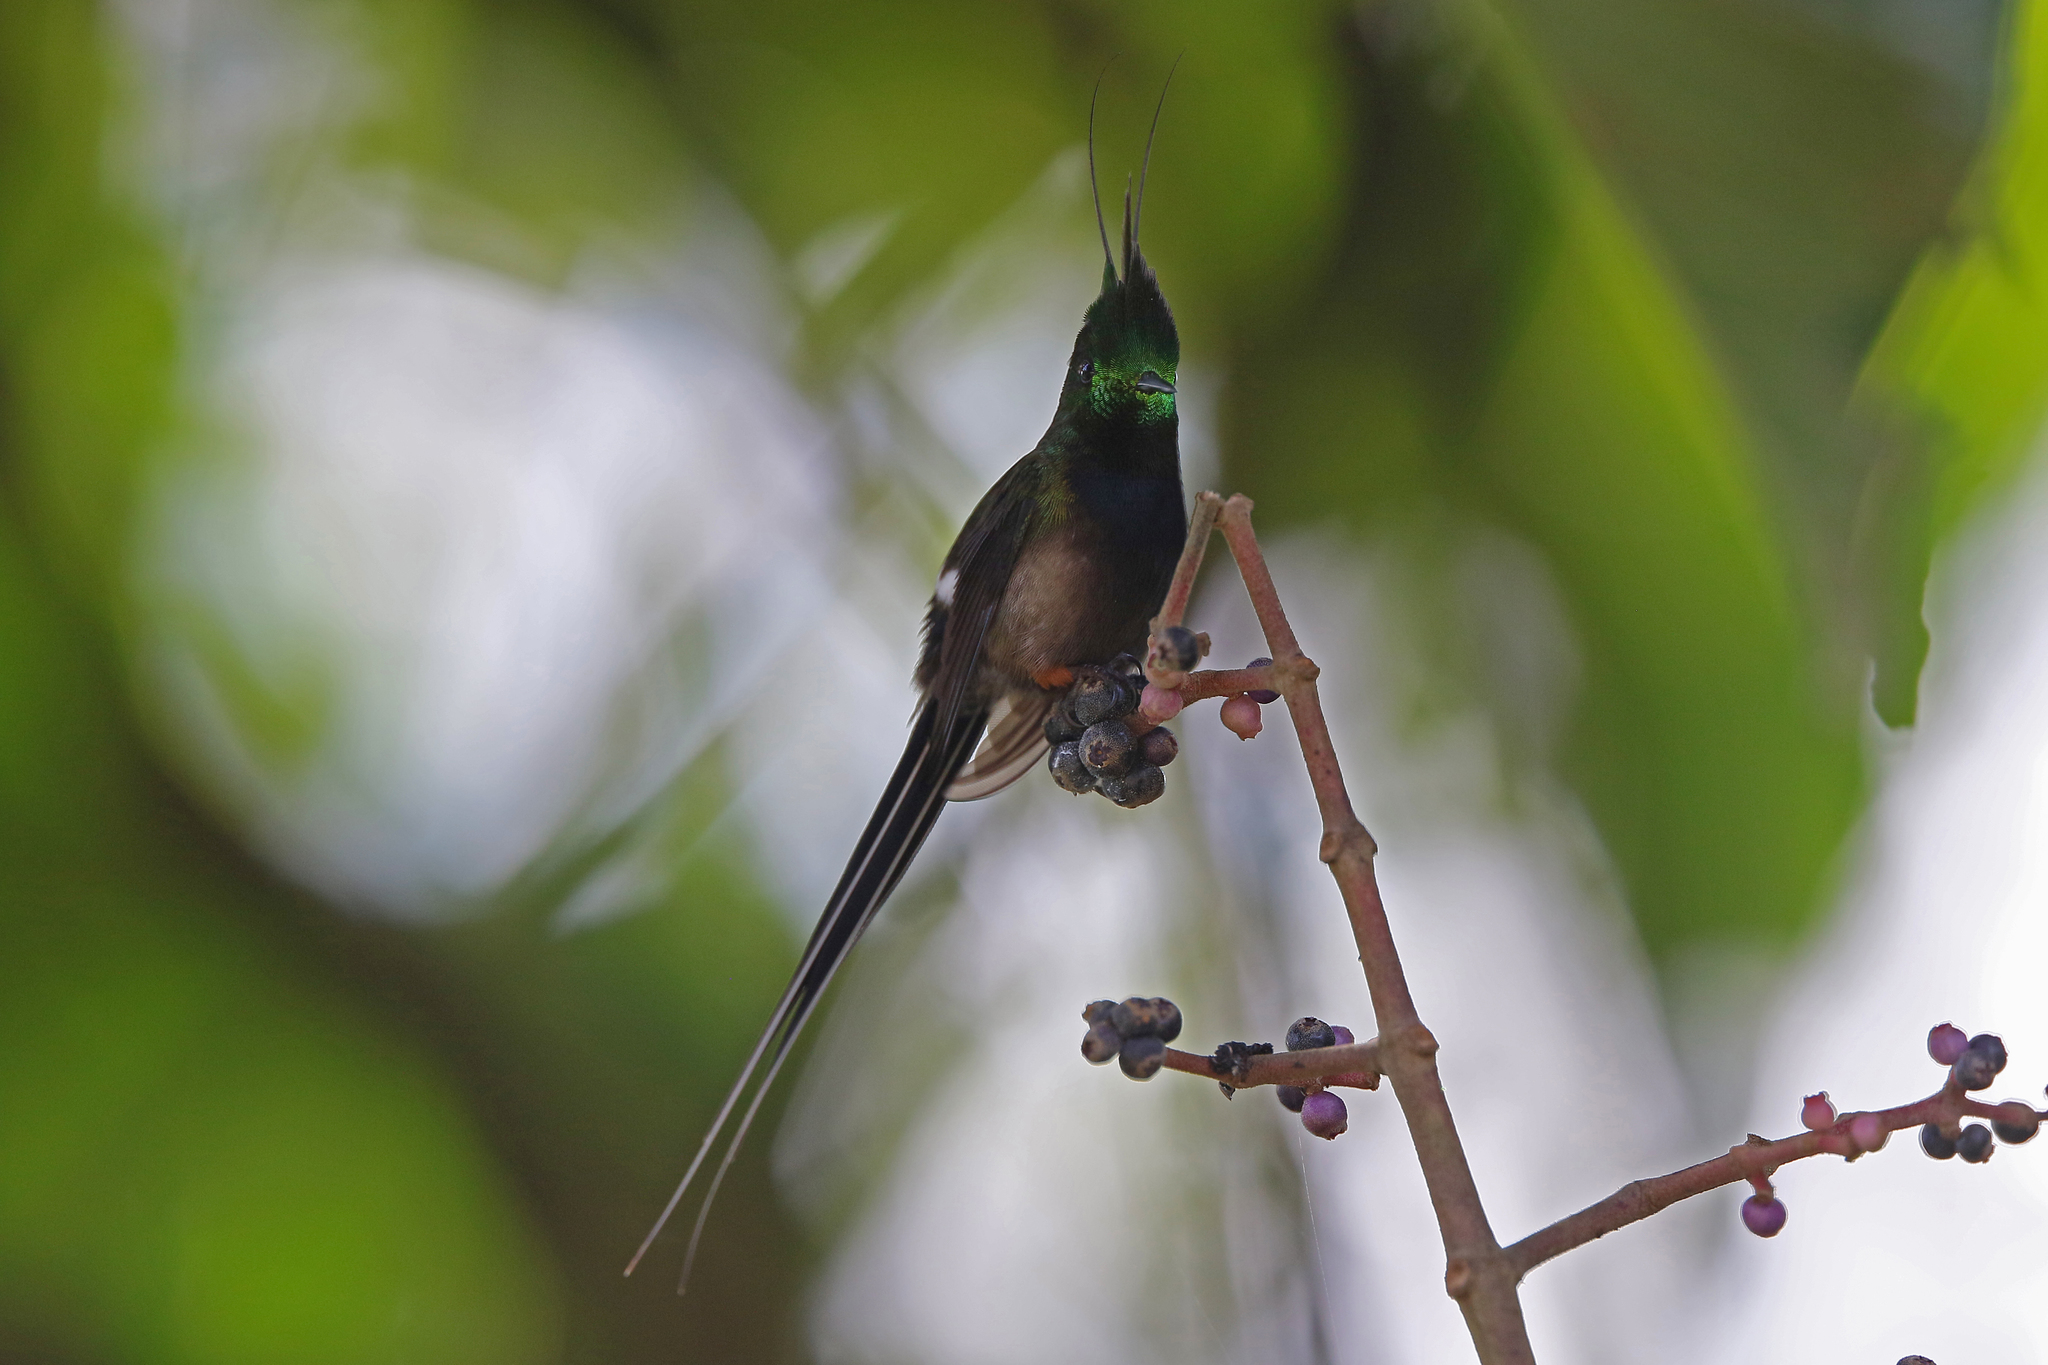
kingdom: Animalia
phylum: Chordata
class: Aves
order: Apodiformes
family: Trochilidae
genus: Discosura
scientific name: Discosura popelairii
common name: Wire-crested thorntail
